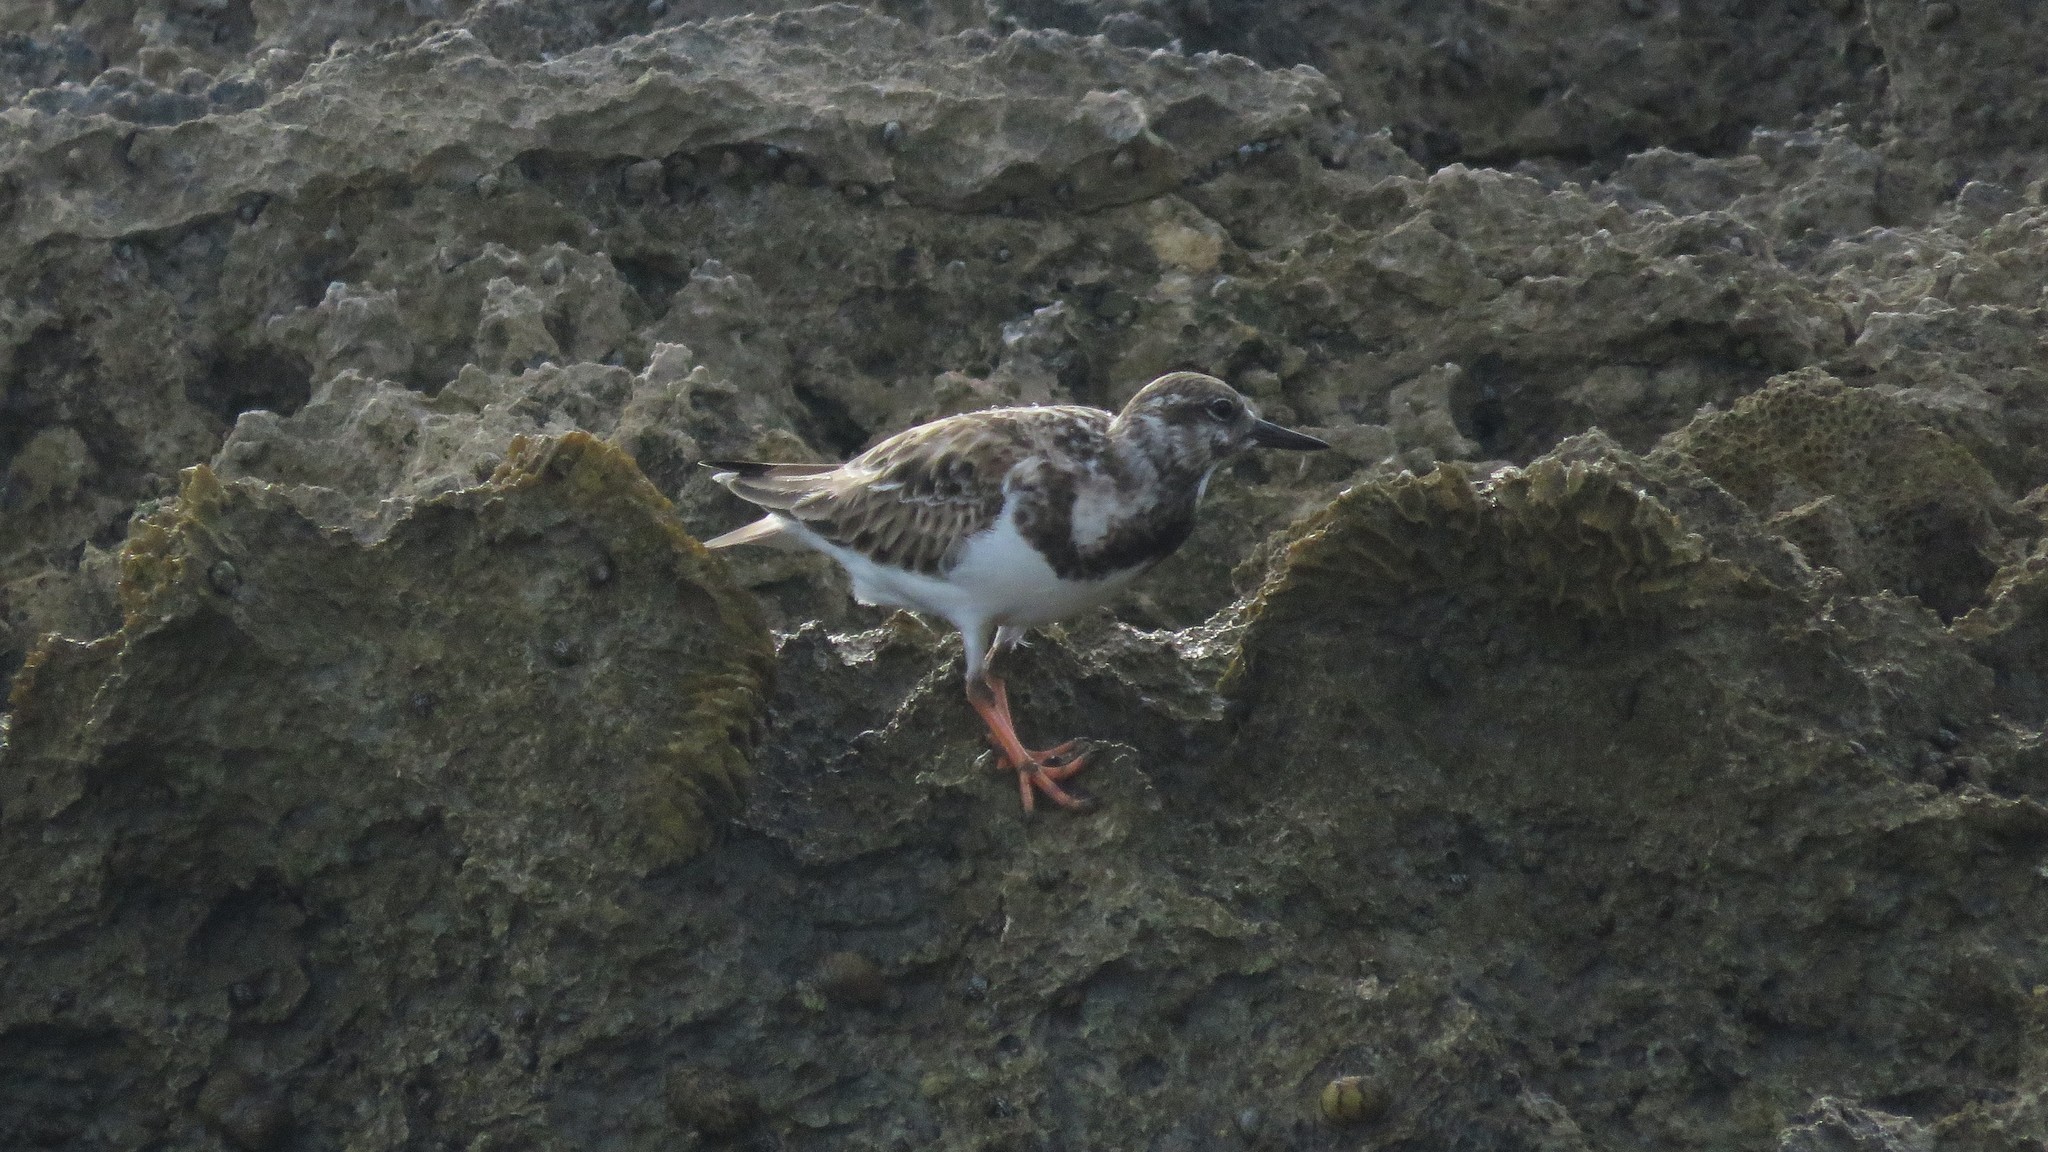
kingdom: Animalia
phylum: Chordata
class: Aves
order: Charadriiformes
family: Scolopacidae
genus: Arenaria
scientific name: Arenaria interpres
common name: Ruddy turnstone
